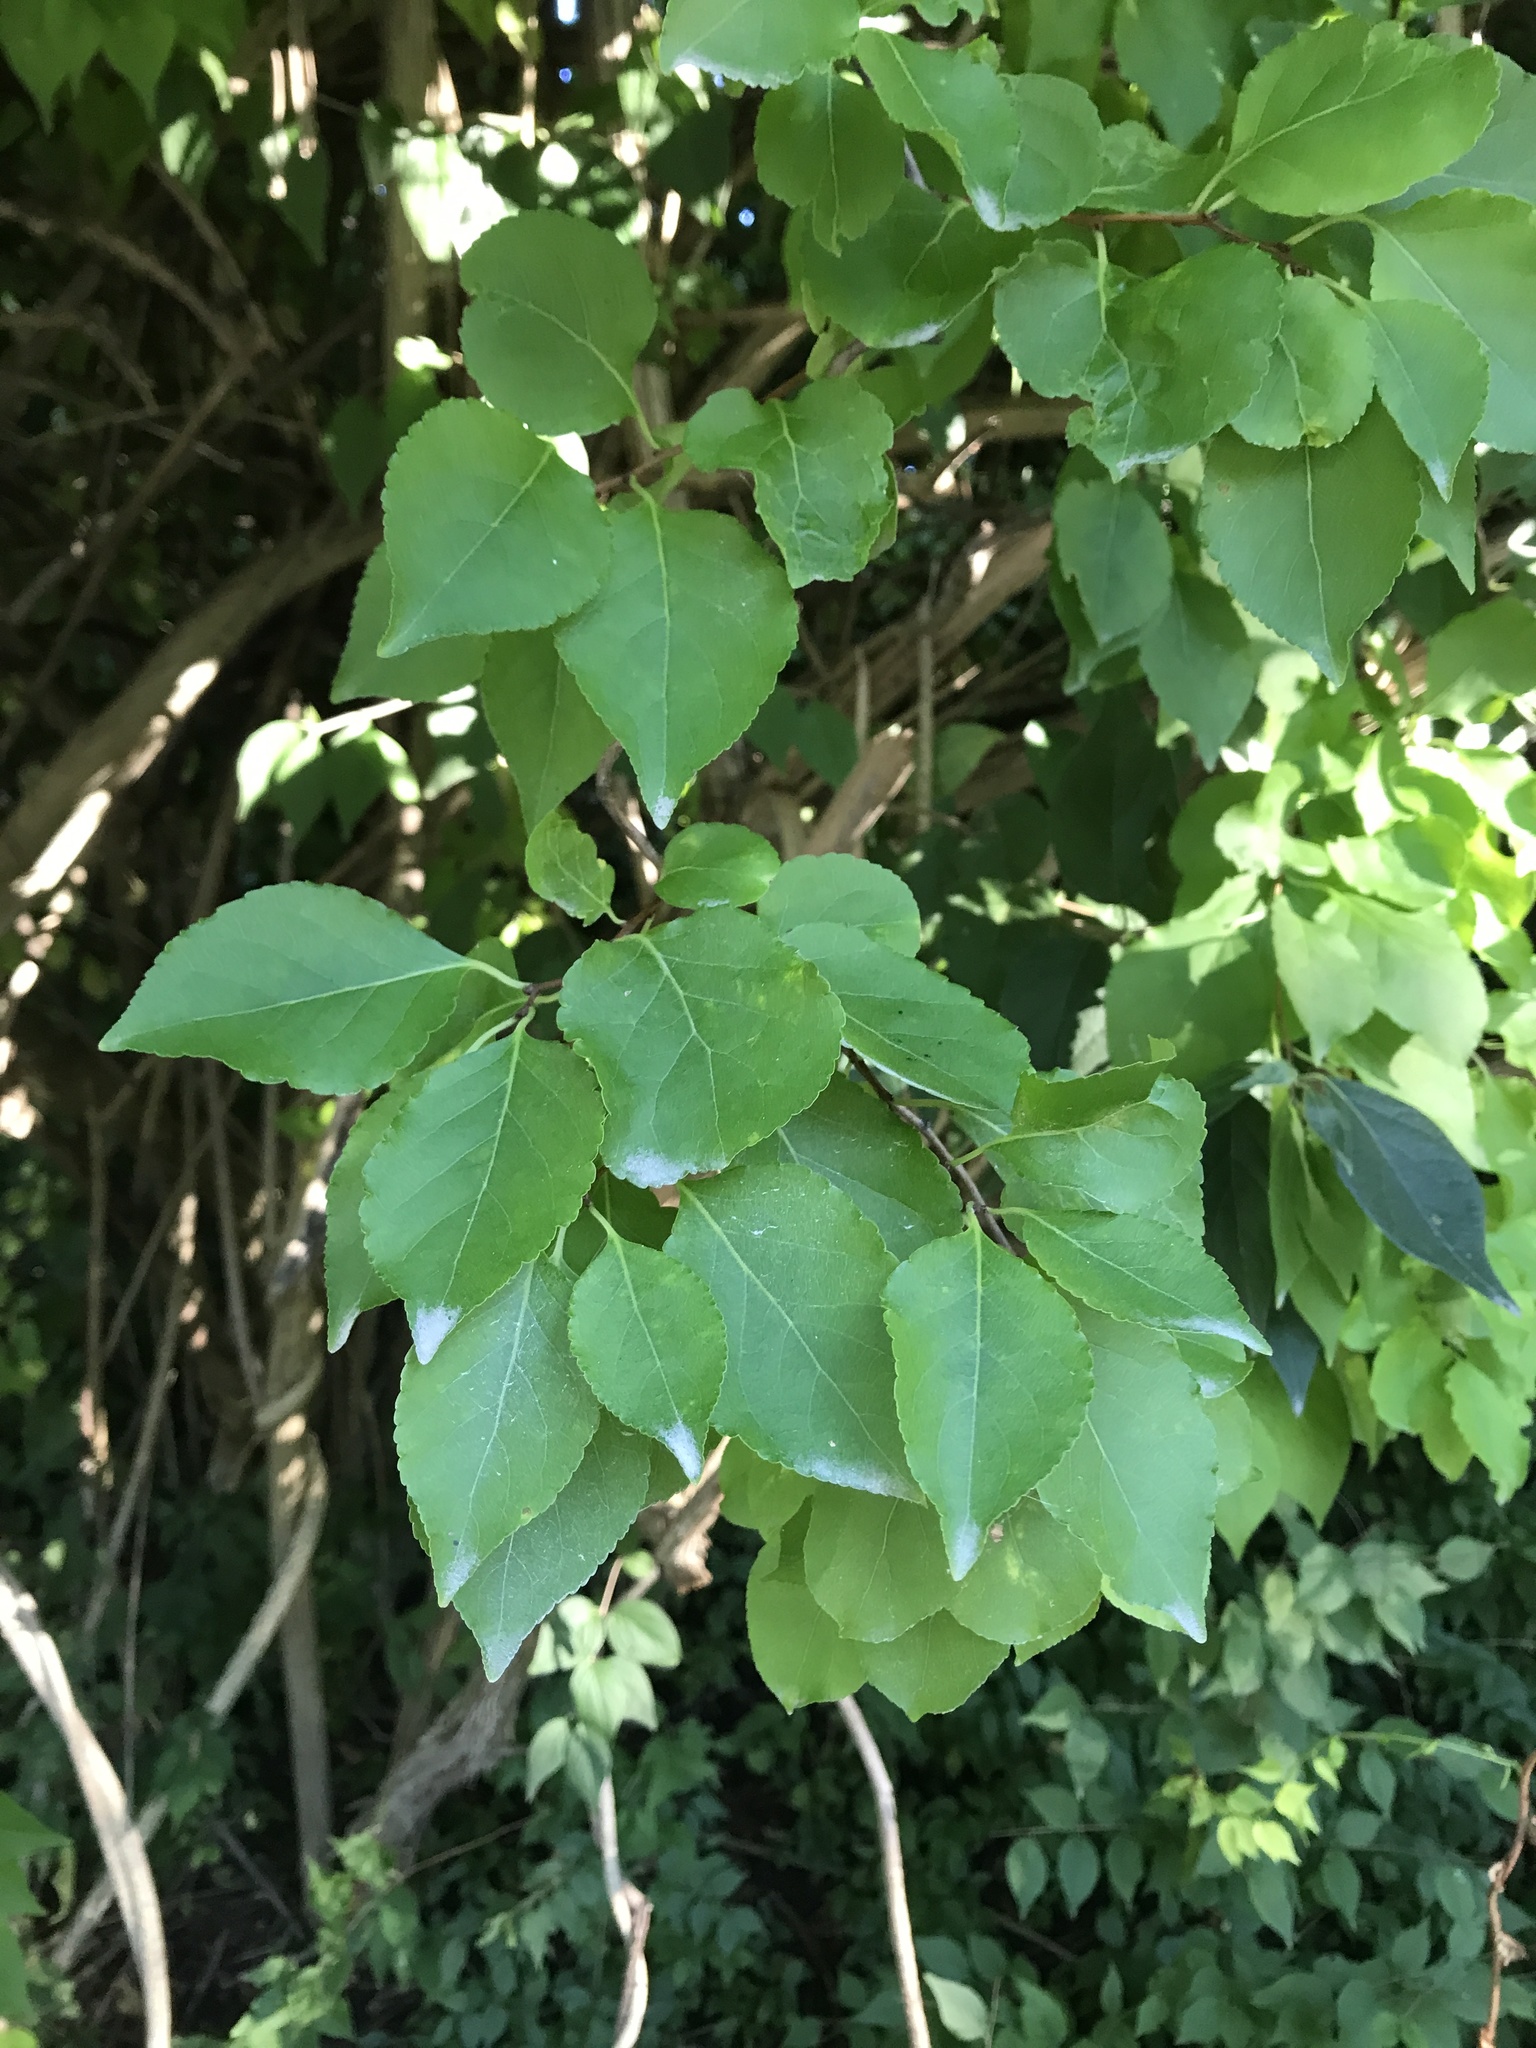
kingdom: Plantae
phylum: Tracheophyta
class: Magnoliopsida
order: Celastrales
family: Celastraceae
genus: Celastrus
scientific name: Celastrus orbiculatus
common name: Oriental bittersweet
